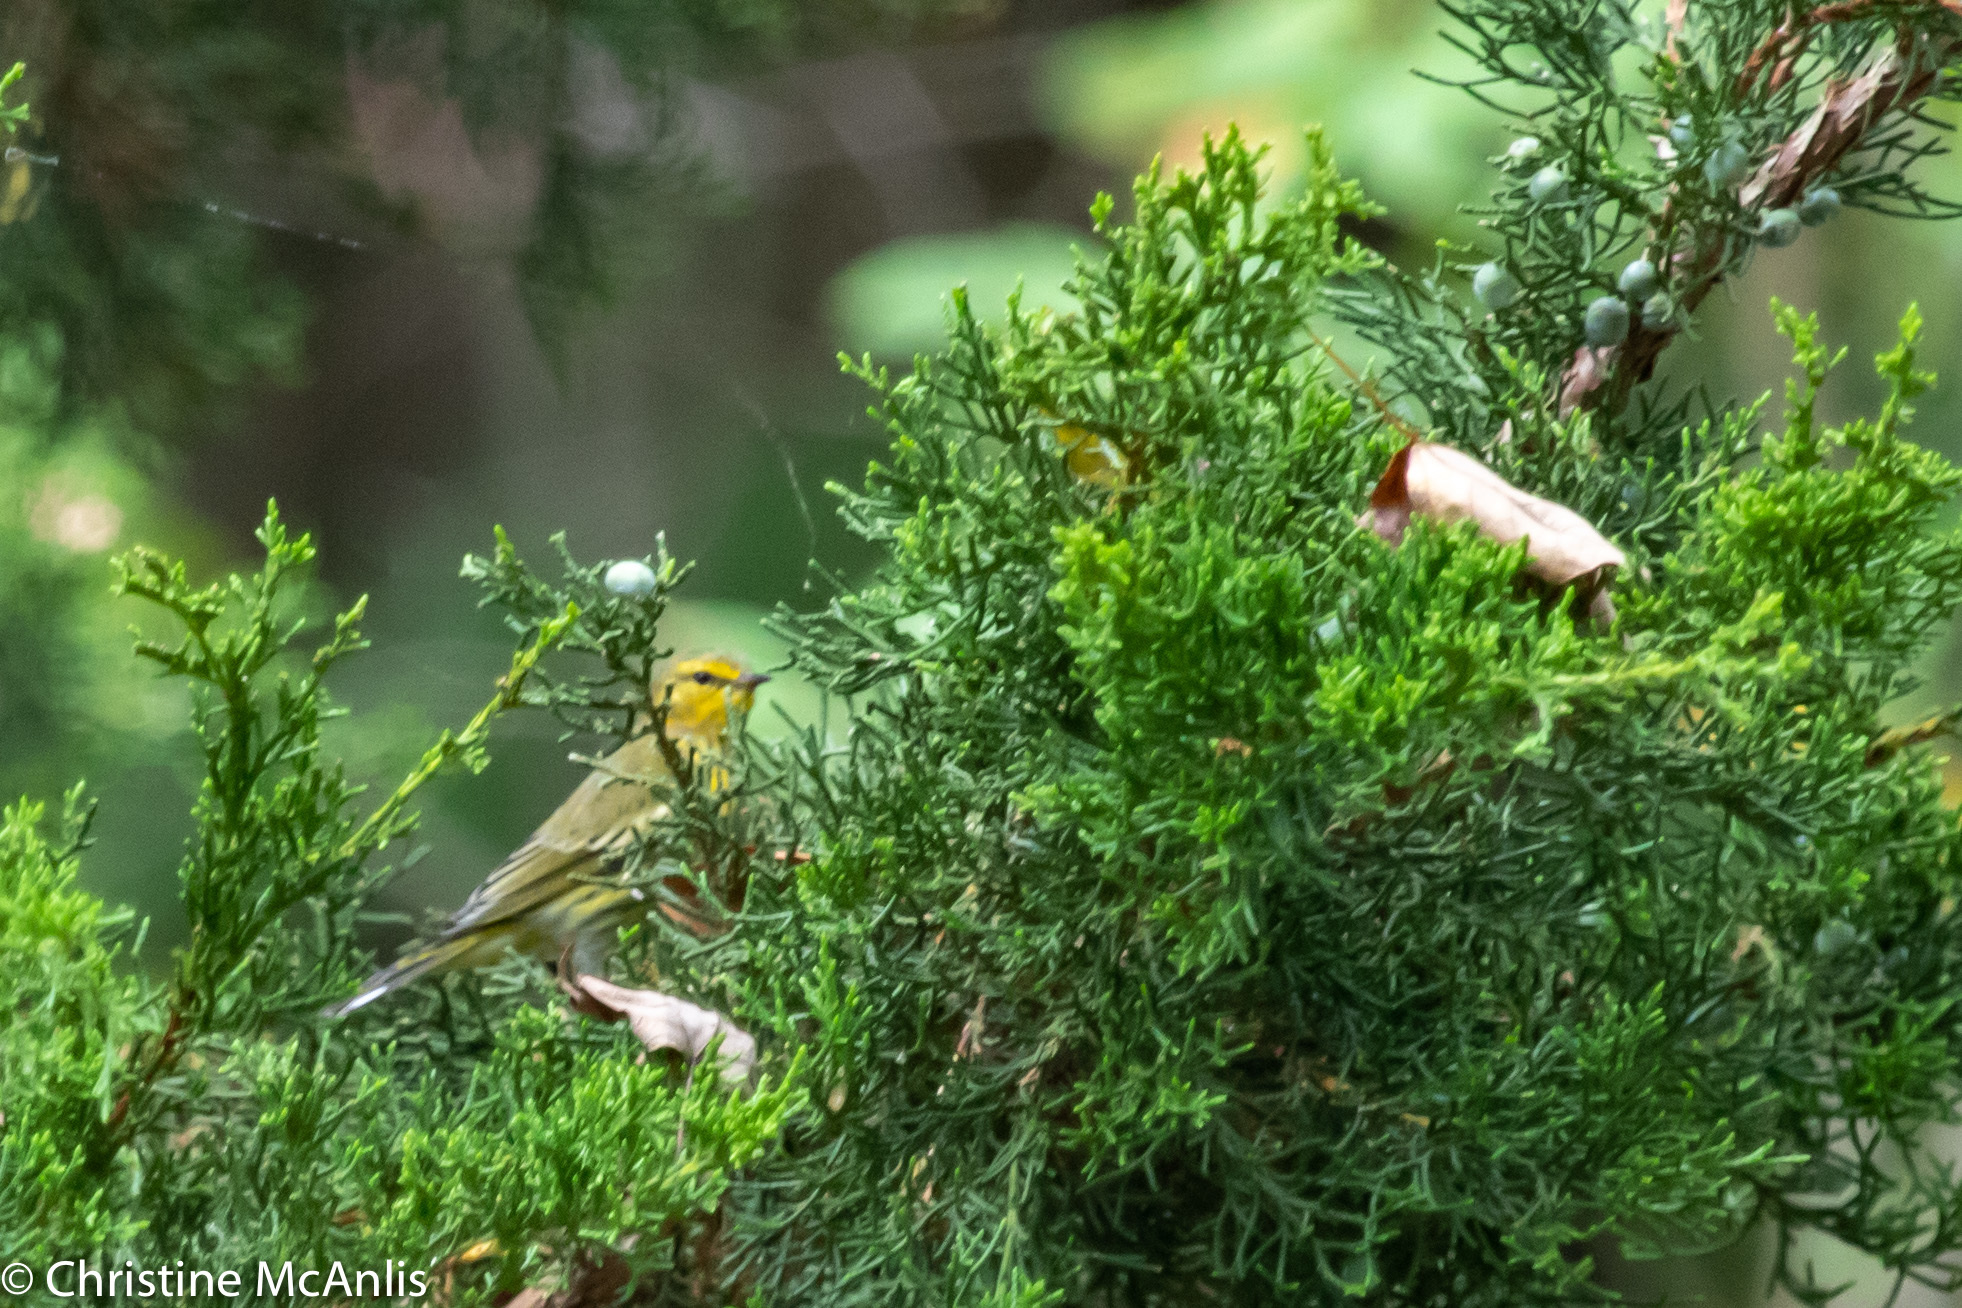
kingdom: Animalia
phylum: Chordata
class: Aves
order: Passeriformes
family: Parulidae
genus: Setophaga
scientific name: Setophaga tigrina
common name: Cape may warbler
